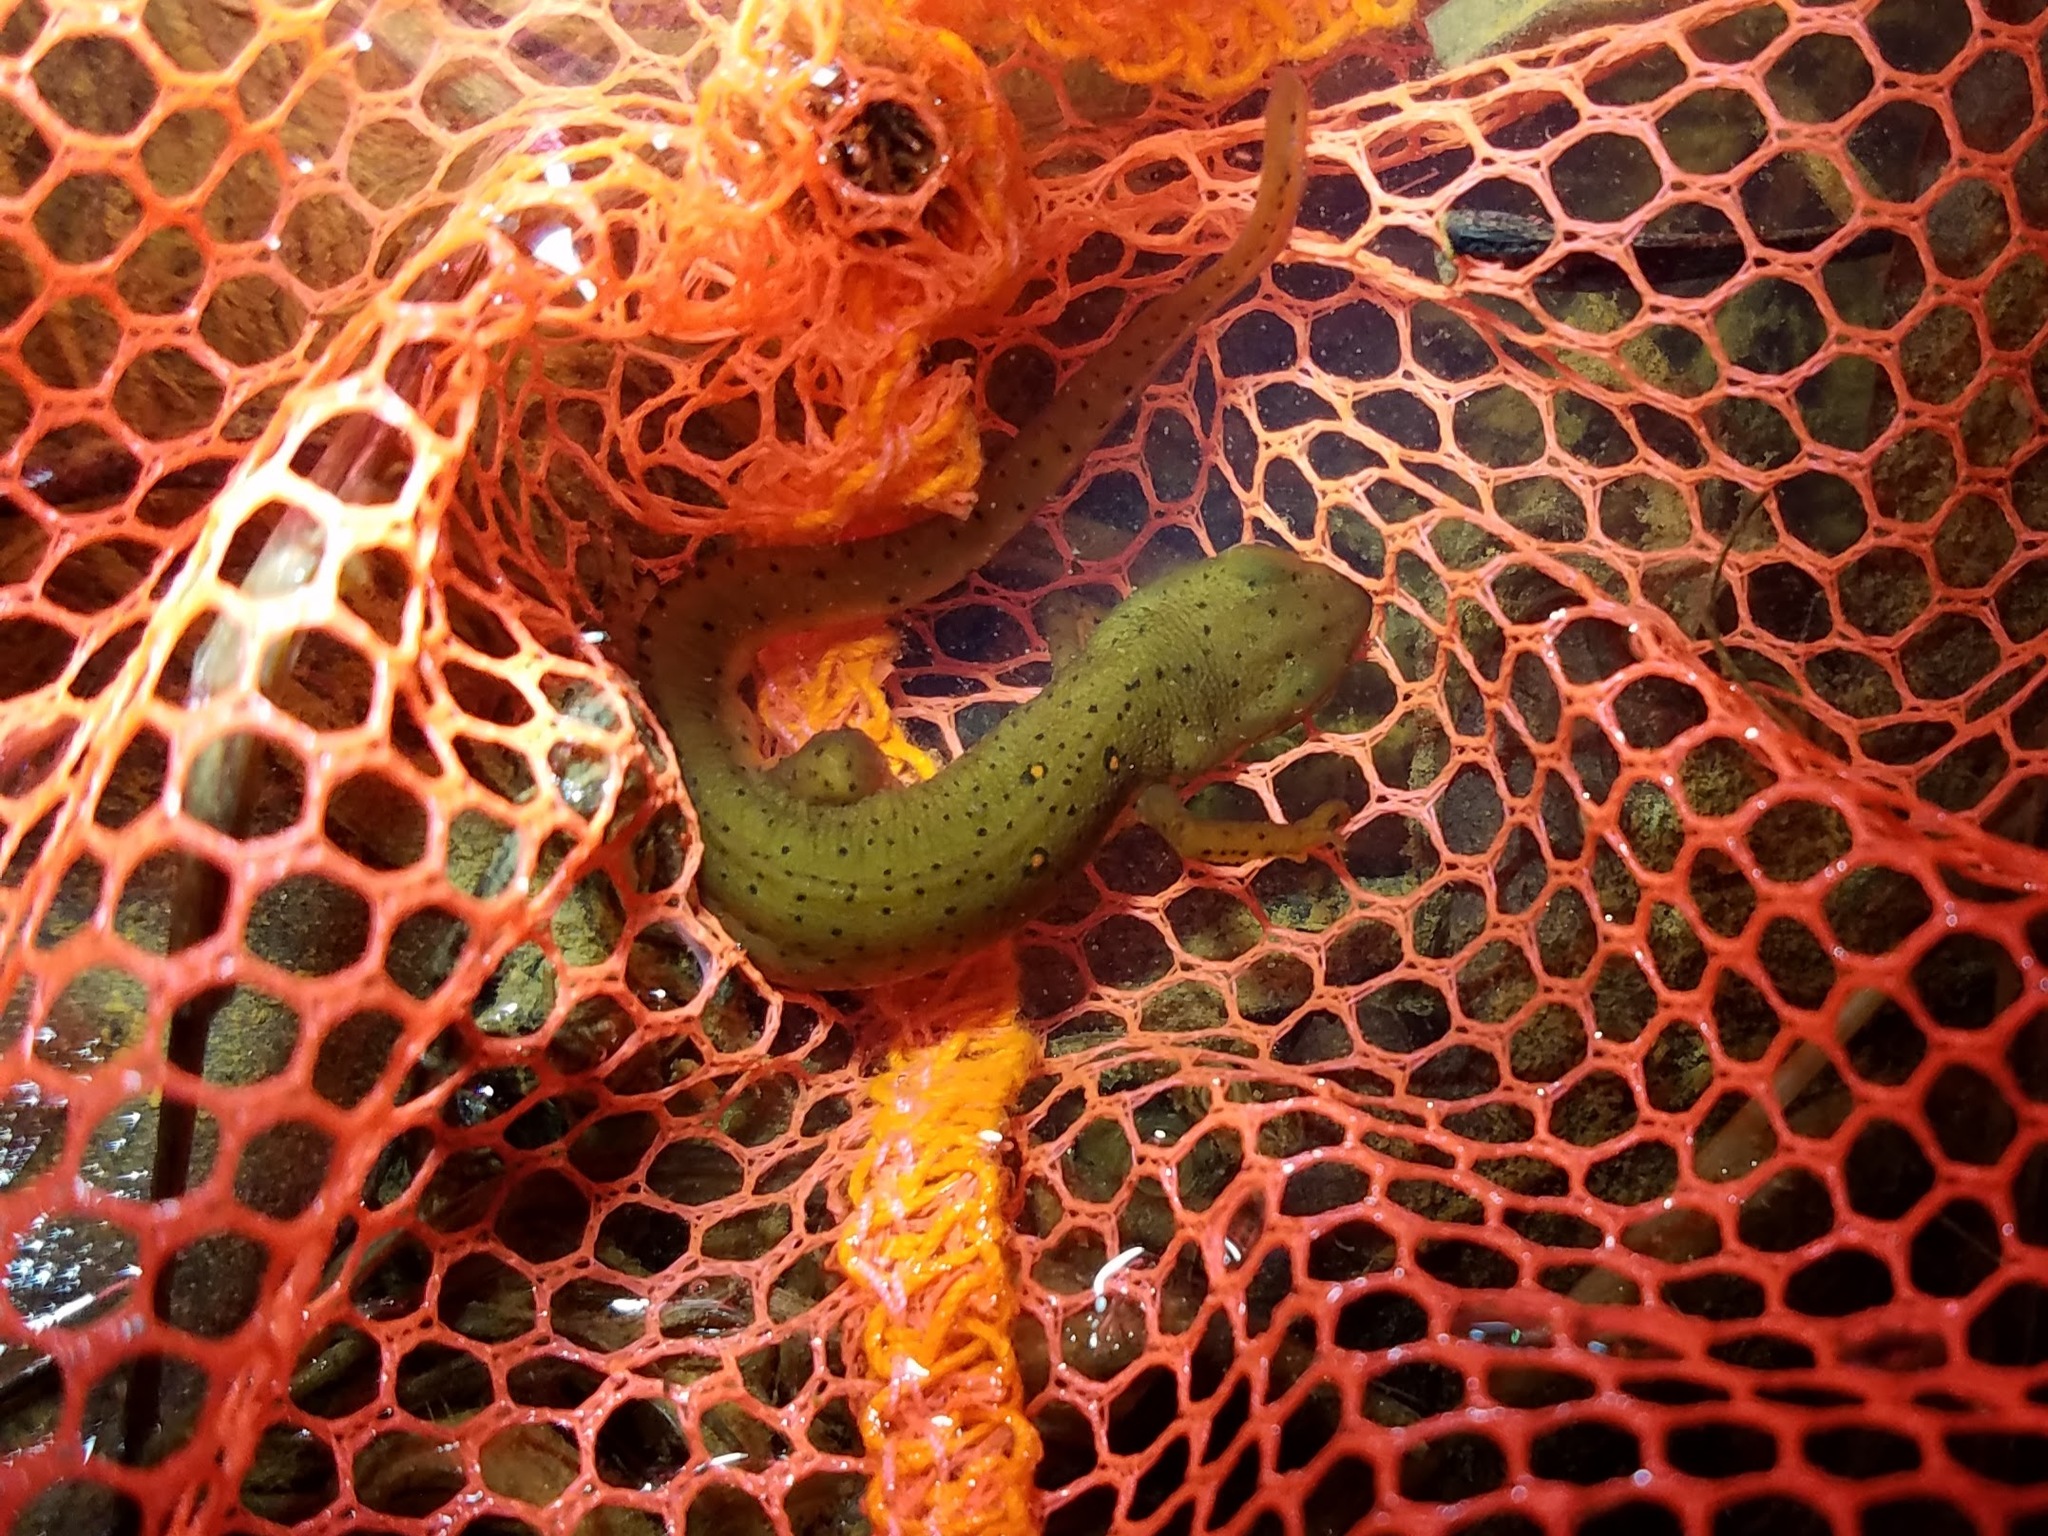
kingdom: Animalia
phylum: Chordata
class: Amphibia
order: Caudata
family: Salamandridae
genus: Notophthalmus
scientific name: Notophthalmus viridescens
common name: Eastern newt
